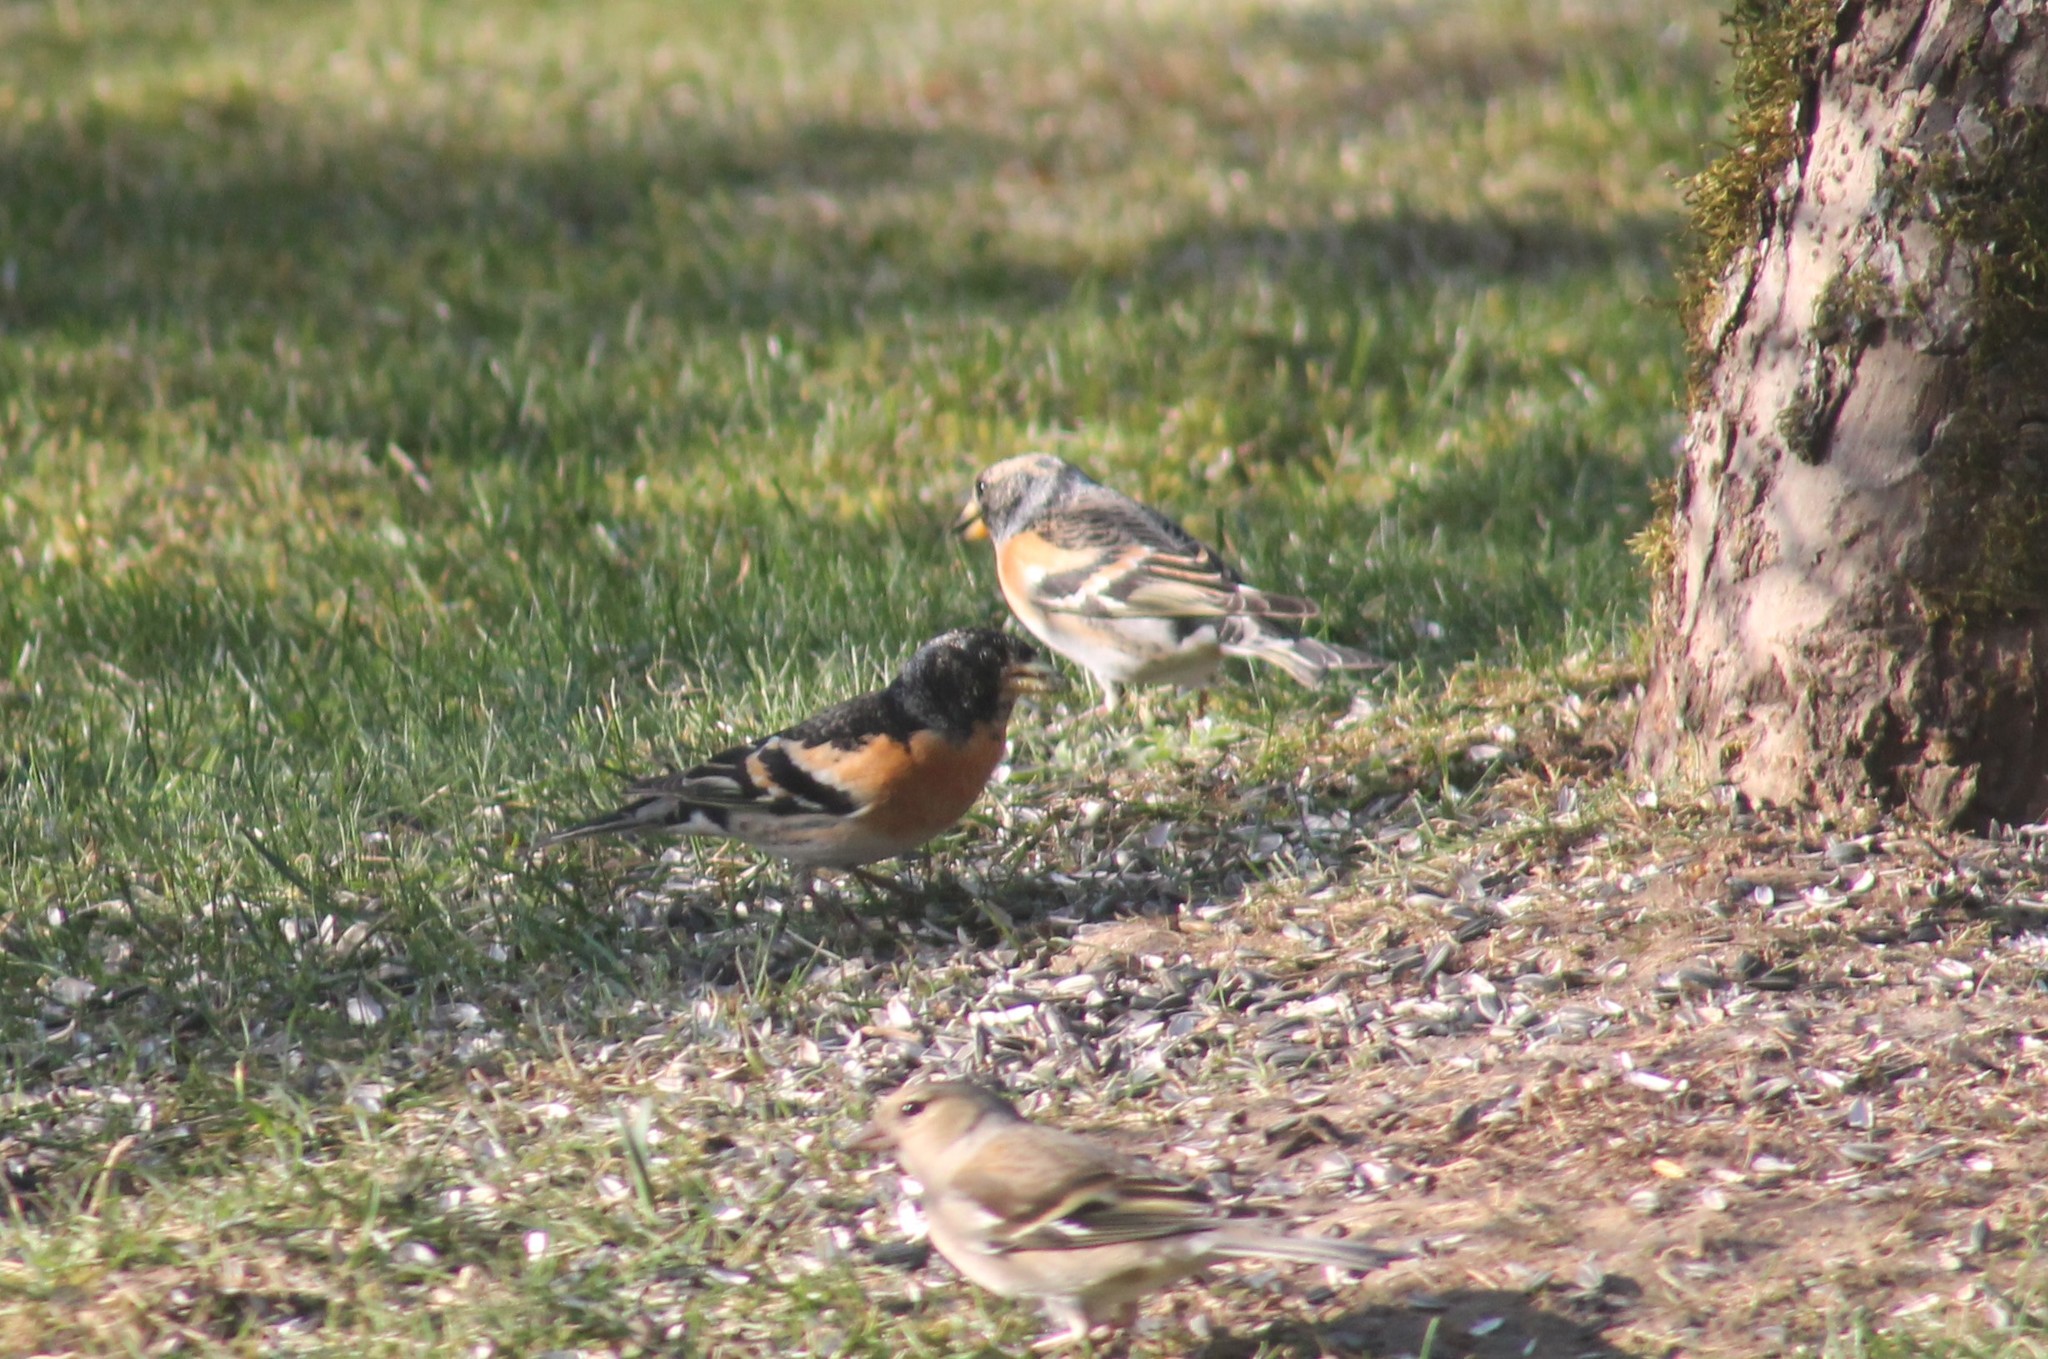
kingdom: Animalia
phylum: Chordata
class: Aves
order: Passeriformes
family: Fringillidae
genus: Fringilla
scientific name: Fringilla montifringilla
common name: Brambling
